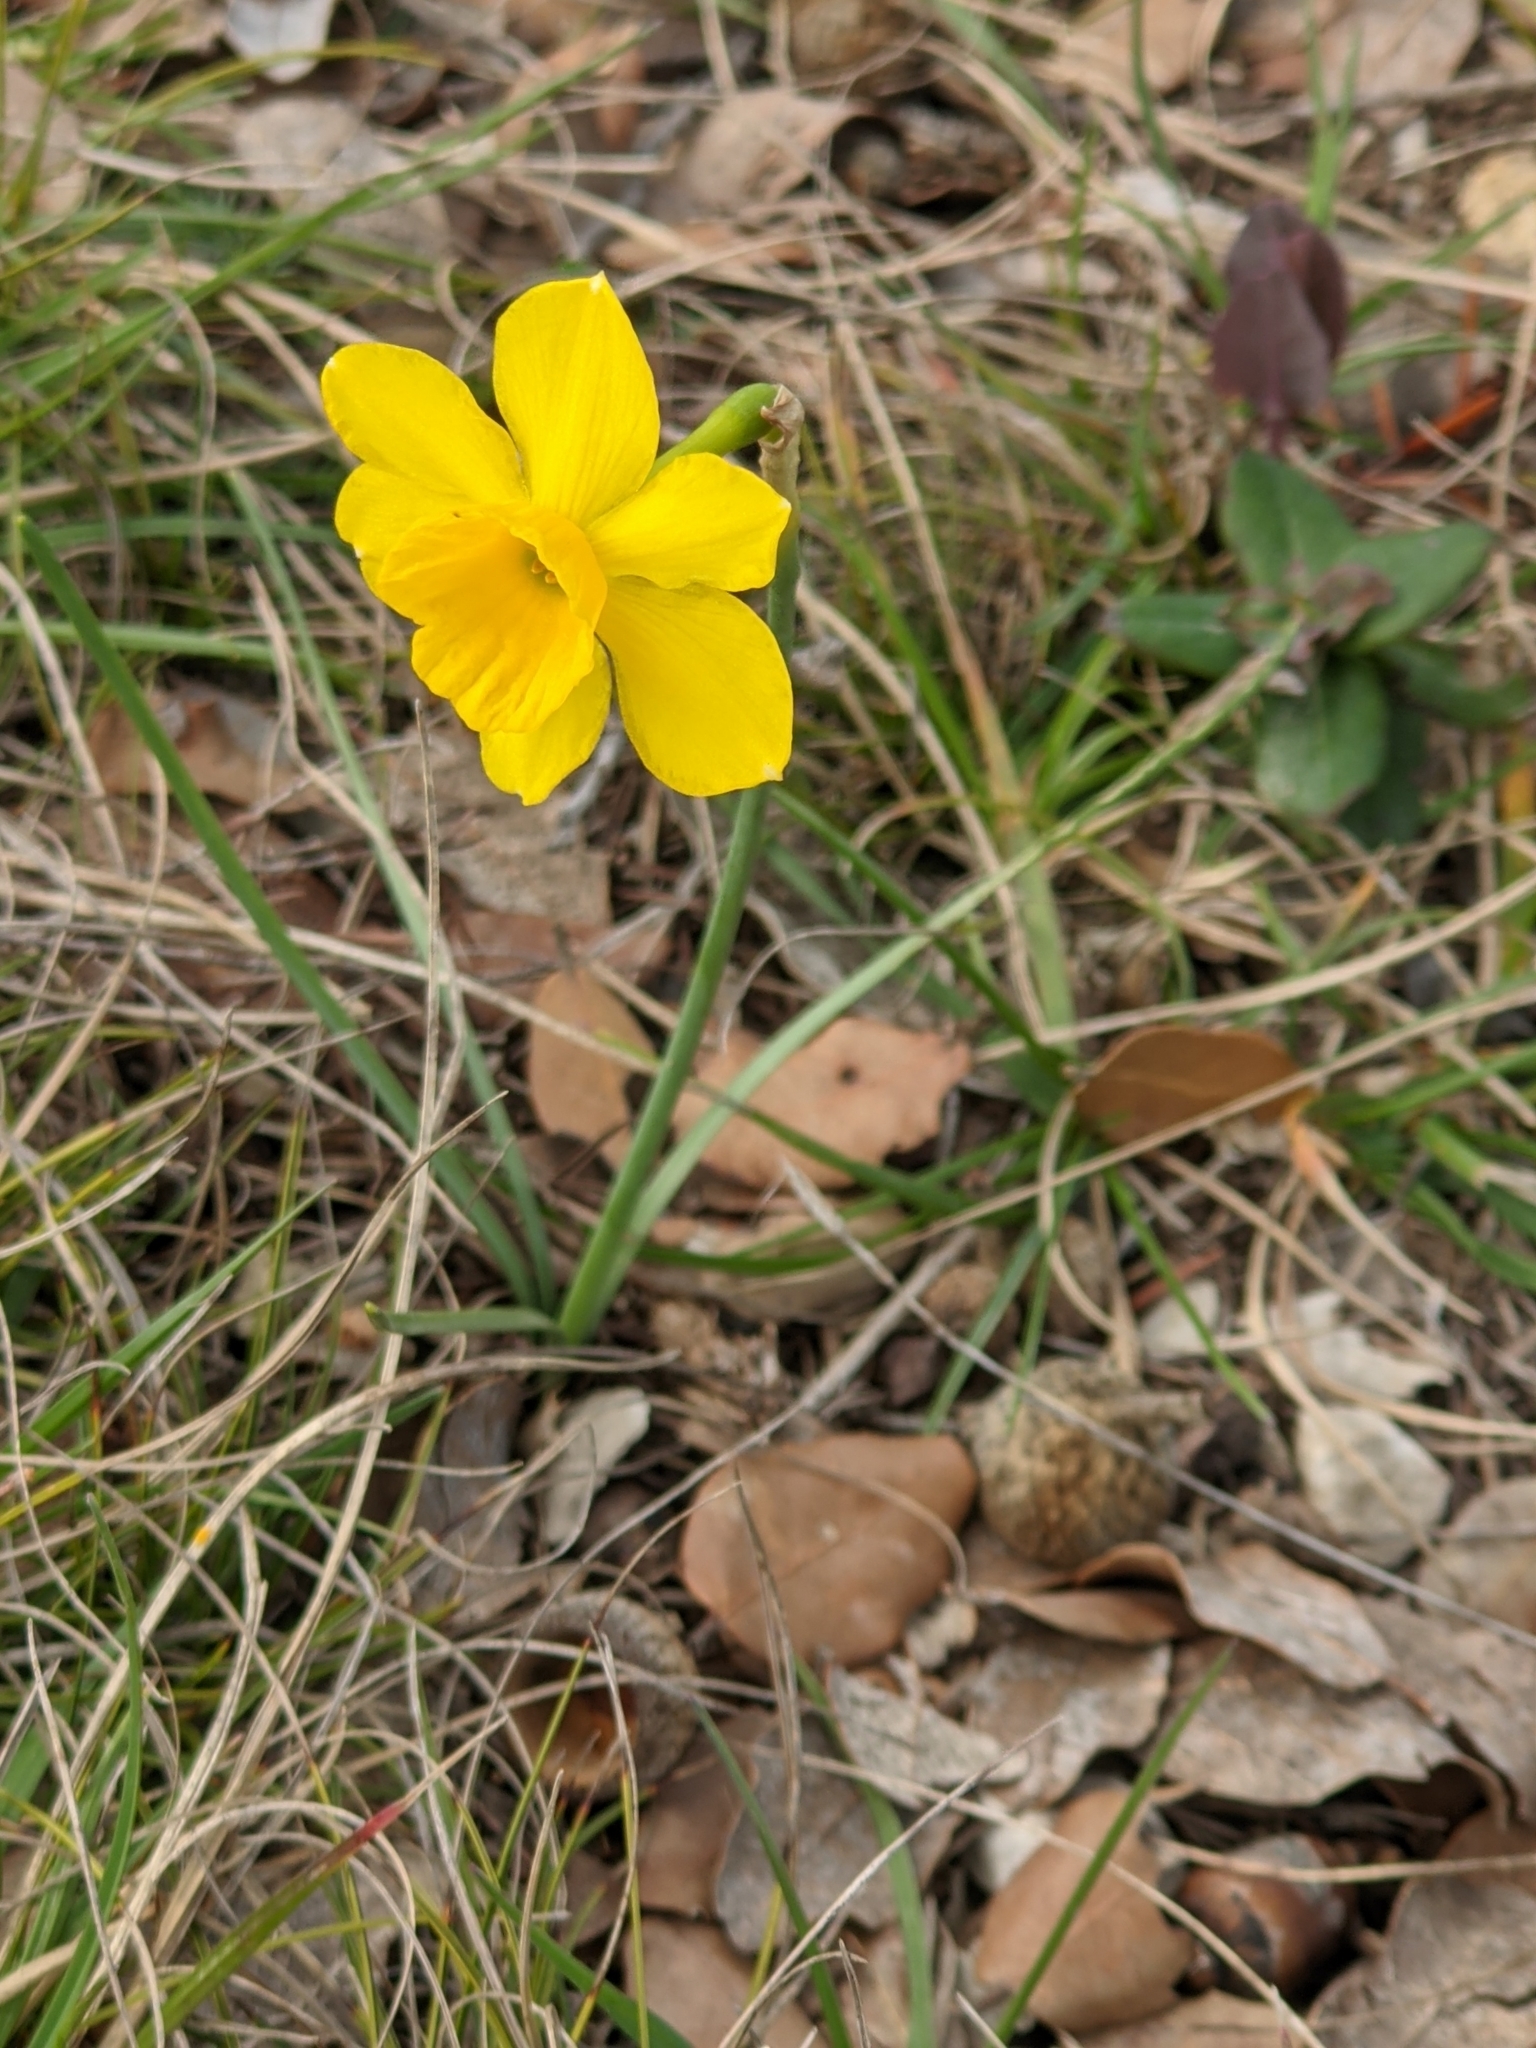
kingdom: Plantae
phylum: Tracheophyta
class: Liliopsida
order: Asparagales
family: Amaryllidaceae
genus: Narcissus
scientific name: Narcissus assoanus
